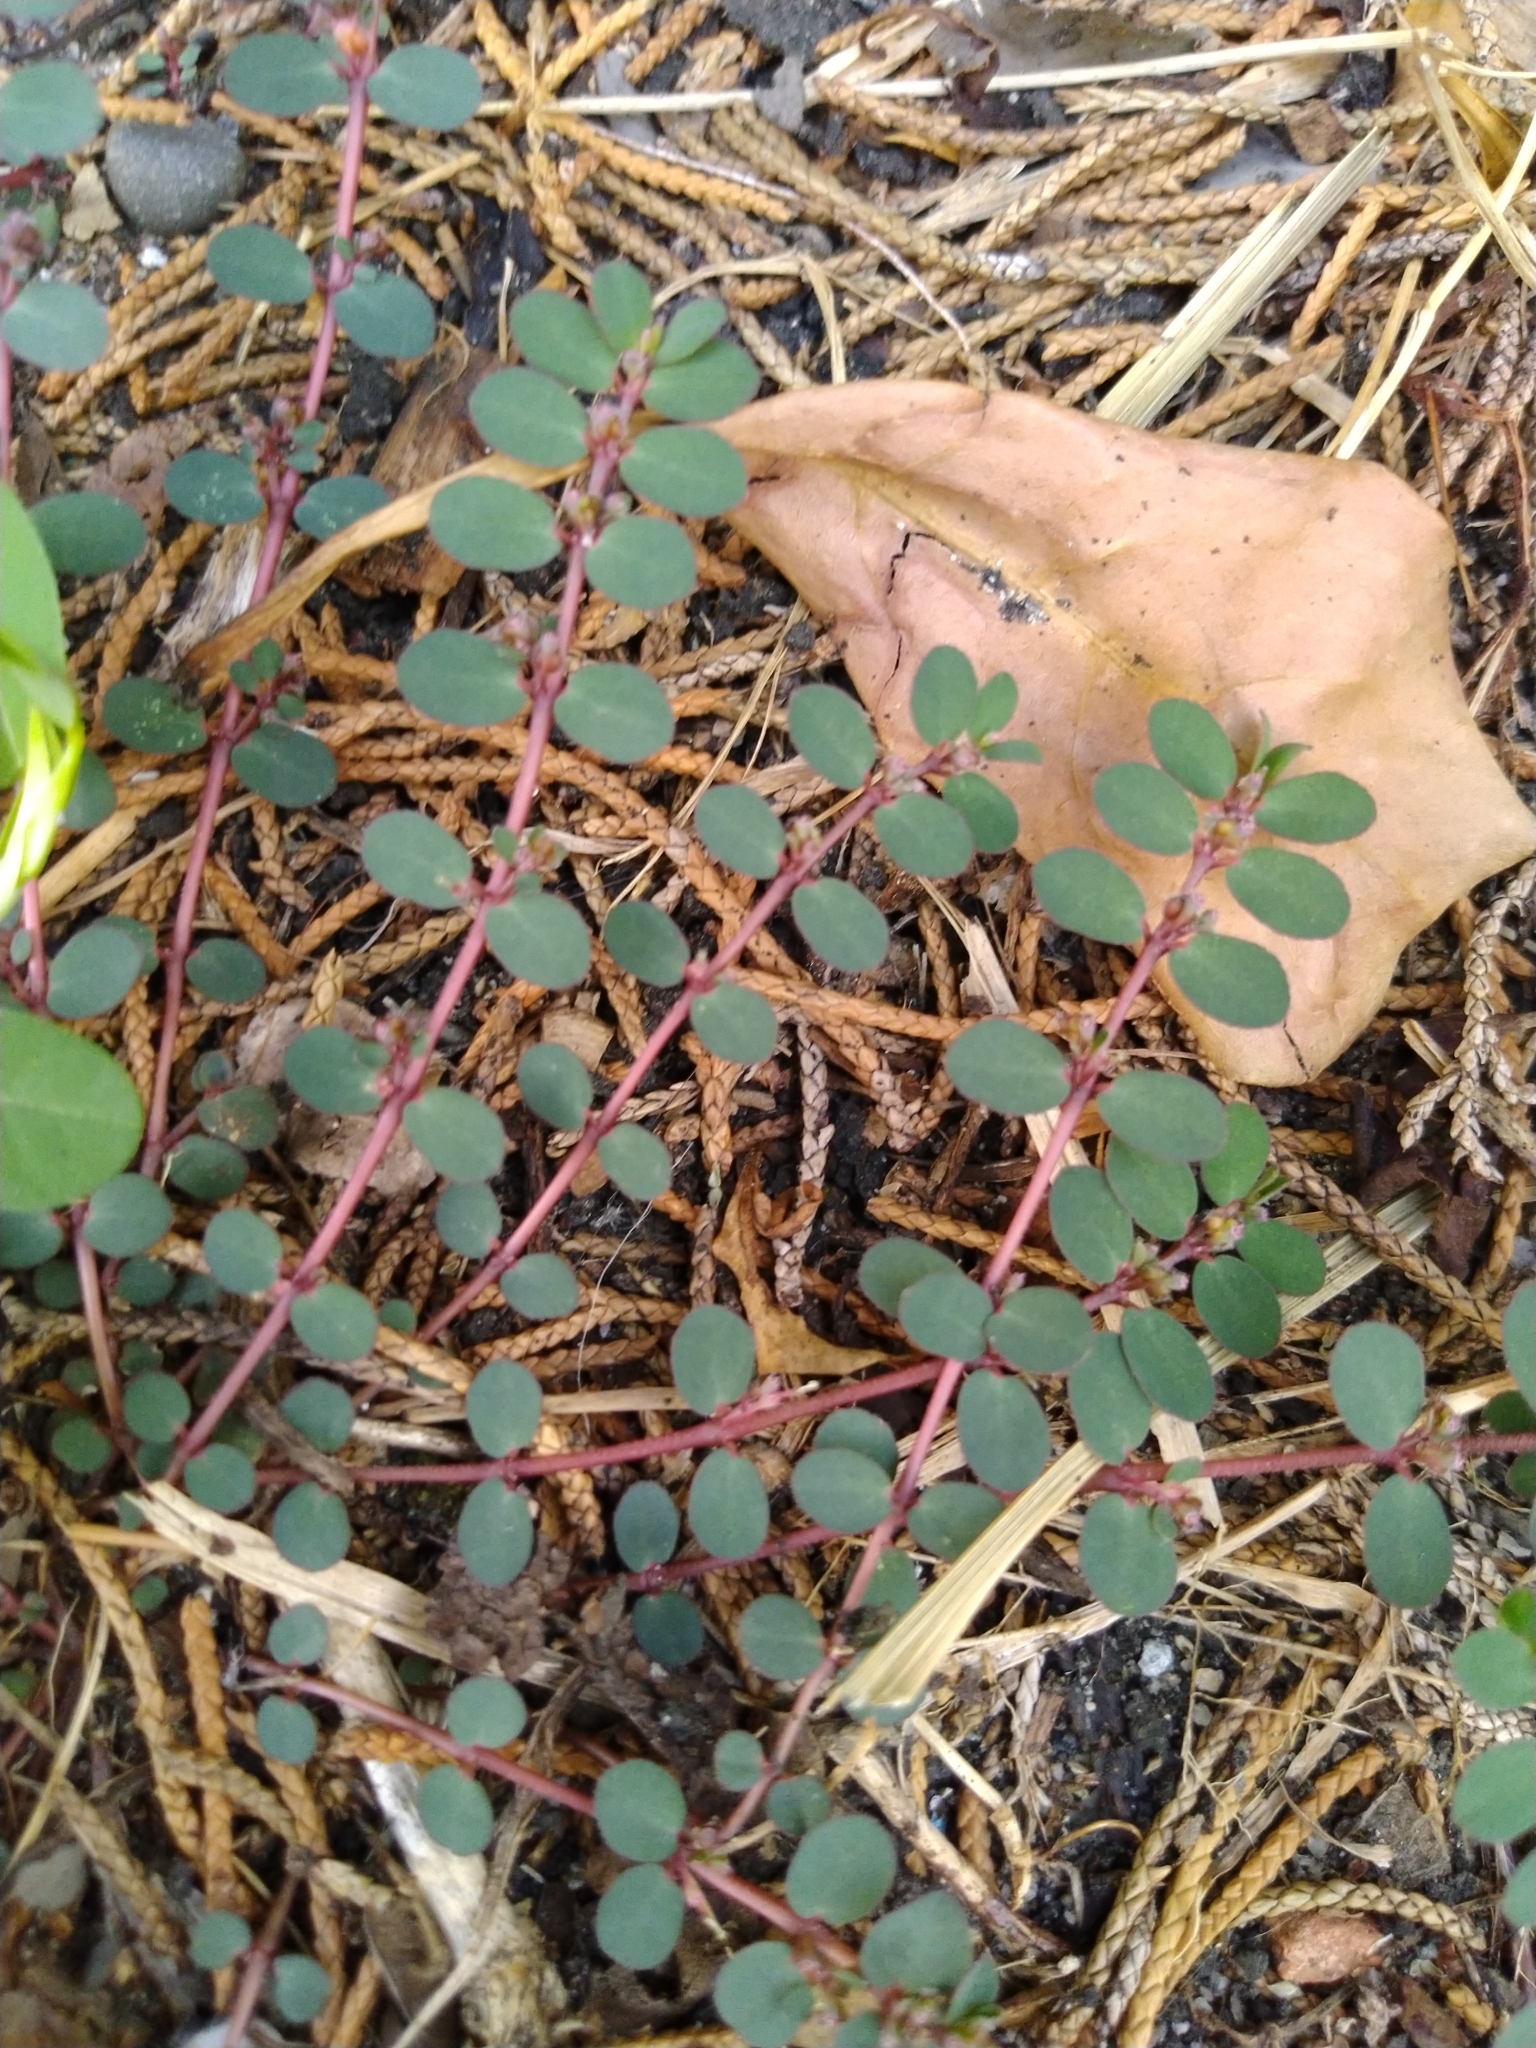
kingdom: Plantae
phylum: Tracheophyta
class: Magnoliopsida
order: Malpighiales
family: Euphorbiaceae
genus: Euphorbia
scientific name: Euphorbia prostrata
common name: Prostrate sandmat
